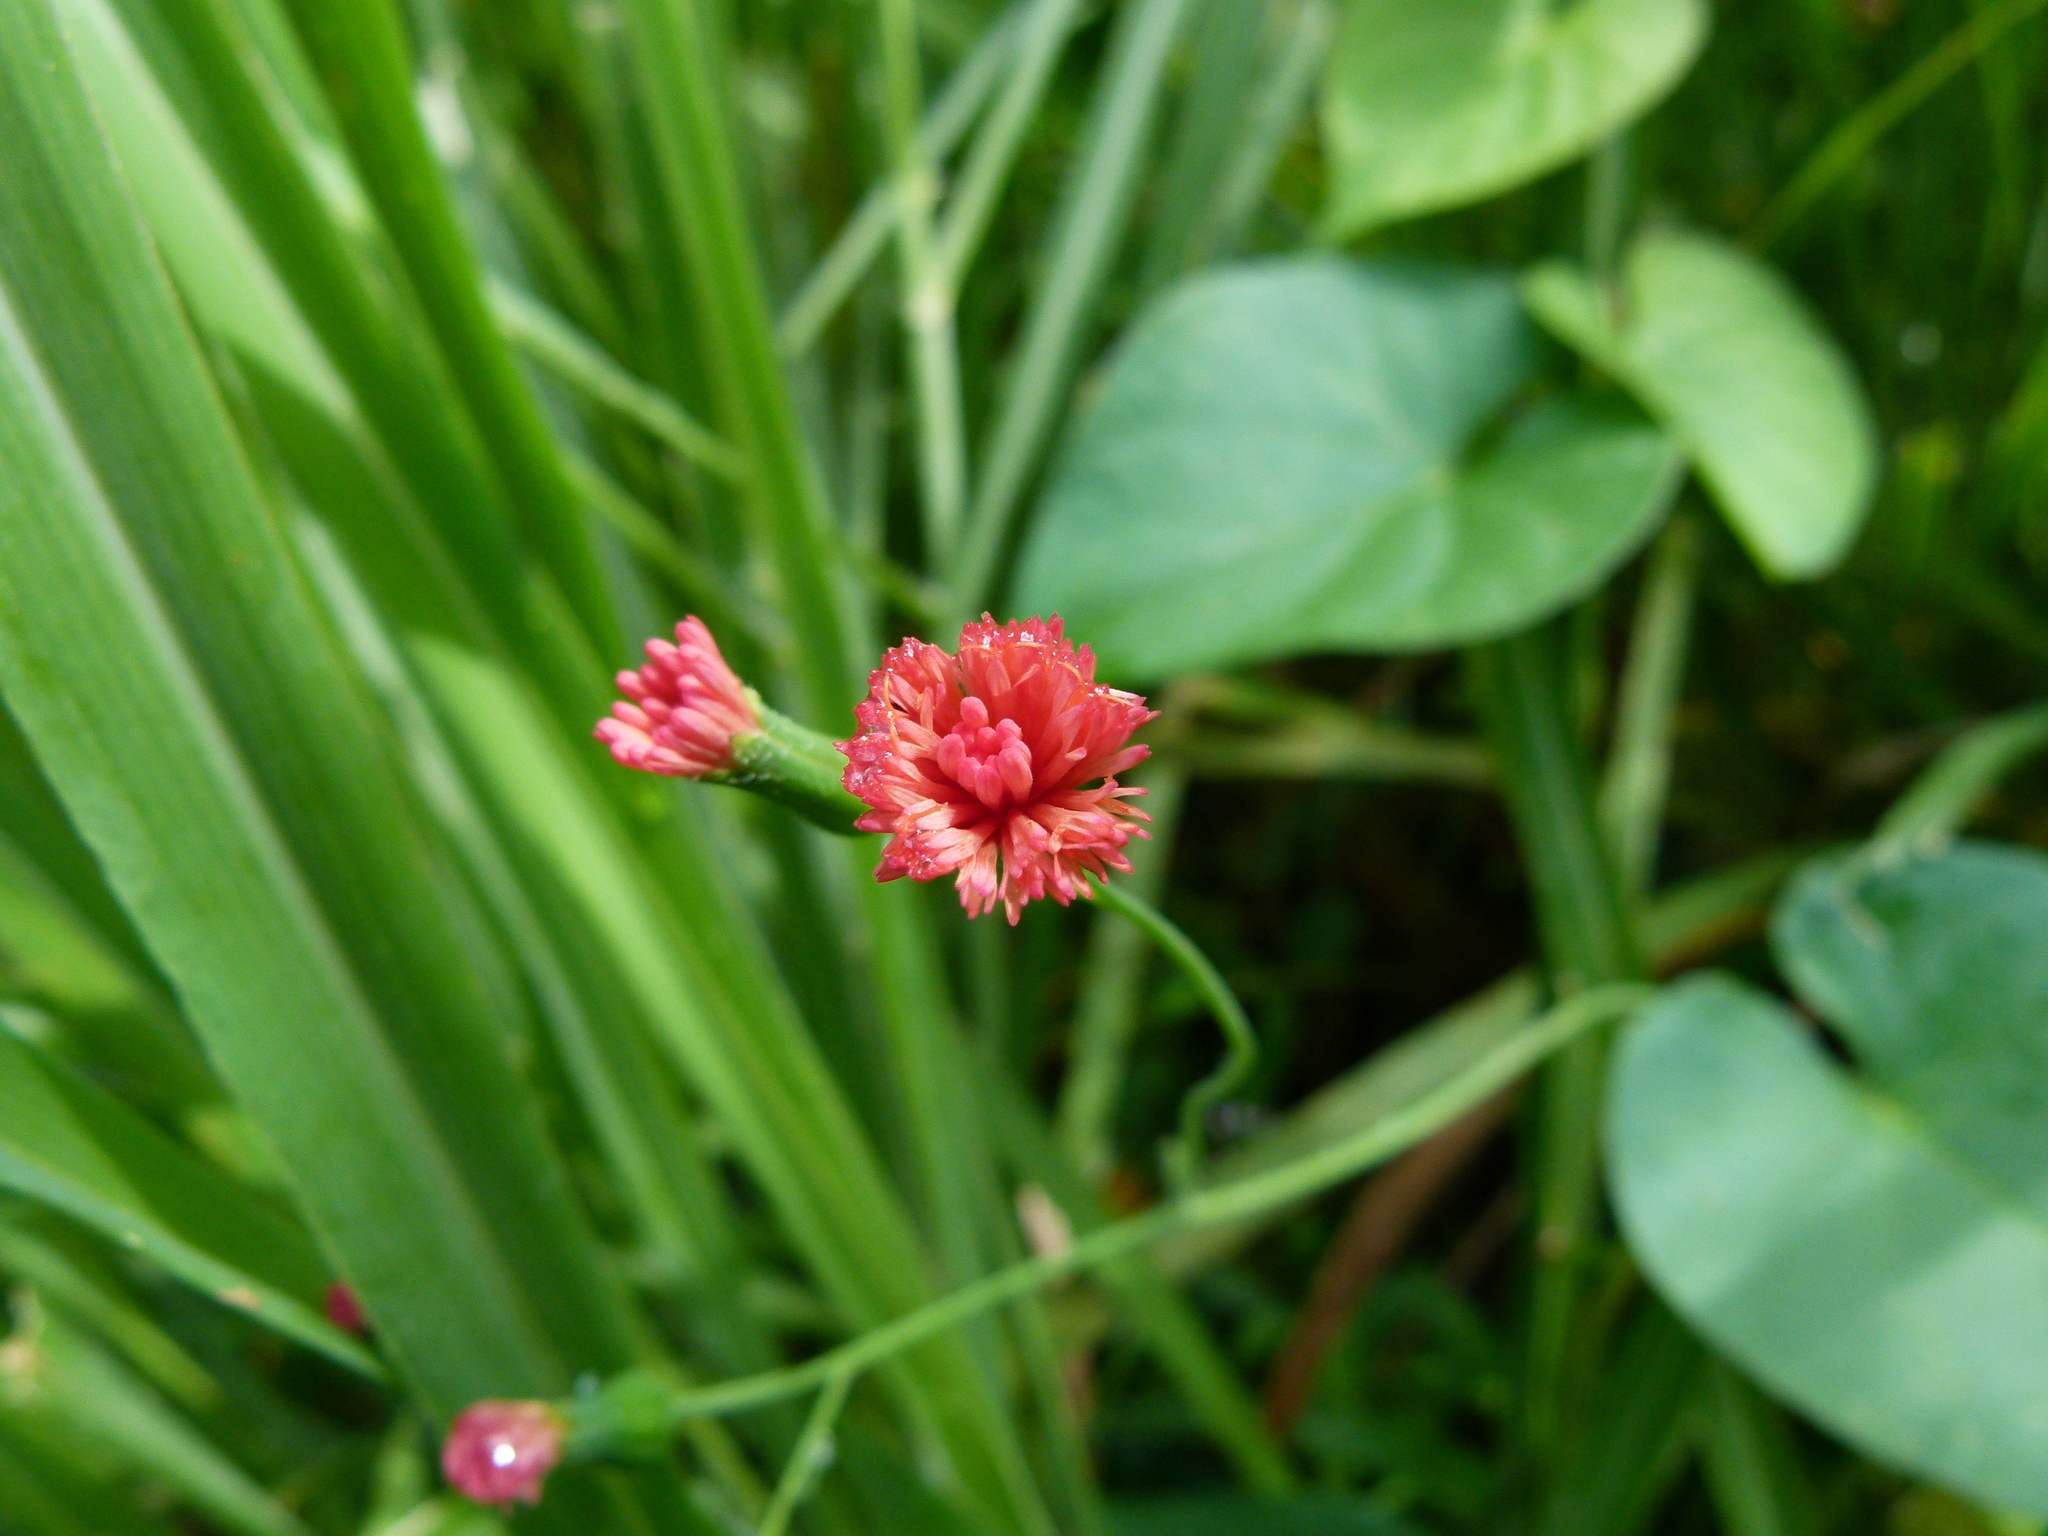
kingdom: Plantae
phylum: Tracheophyta
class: Magnoliopsida
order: Asterales
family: Asteraceae
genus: Emilia
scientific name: Emilia fosbergii
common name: Florida tasselflower
